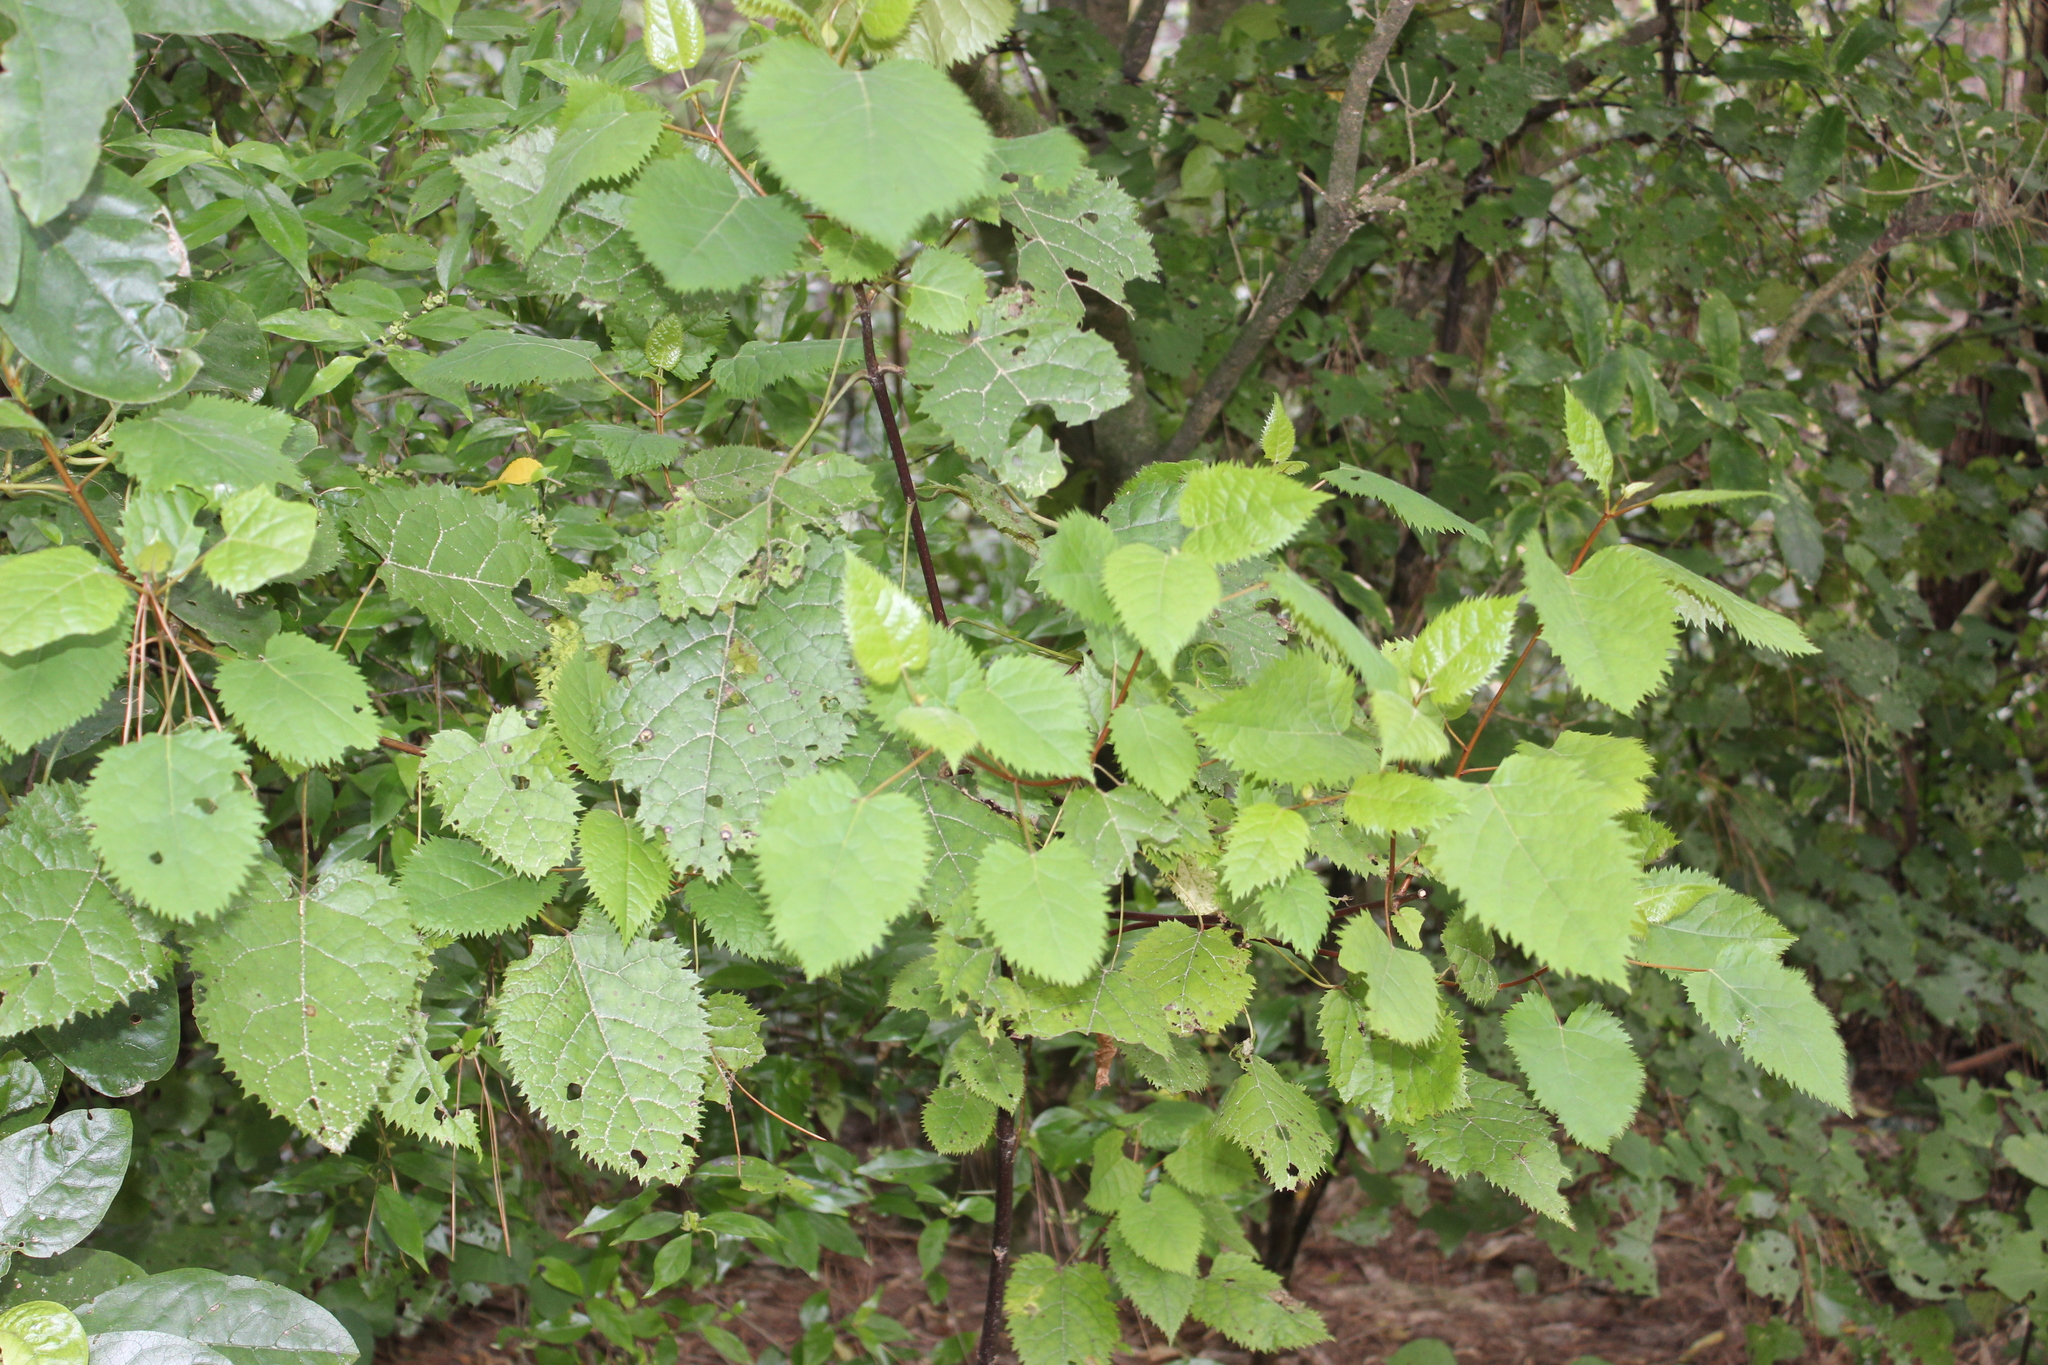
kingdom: Plantae
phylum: Tracheophyta
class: Magnoliopsida
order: Oxalidales
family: Elaeocarpaceae
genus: Aristotelia
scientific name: Aristotelia serrata
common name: New zealand wineberry
